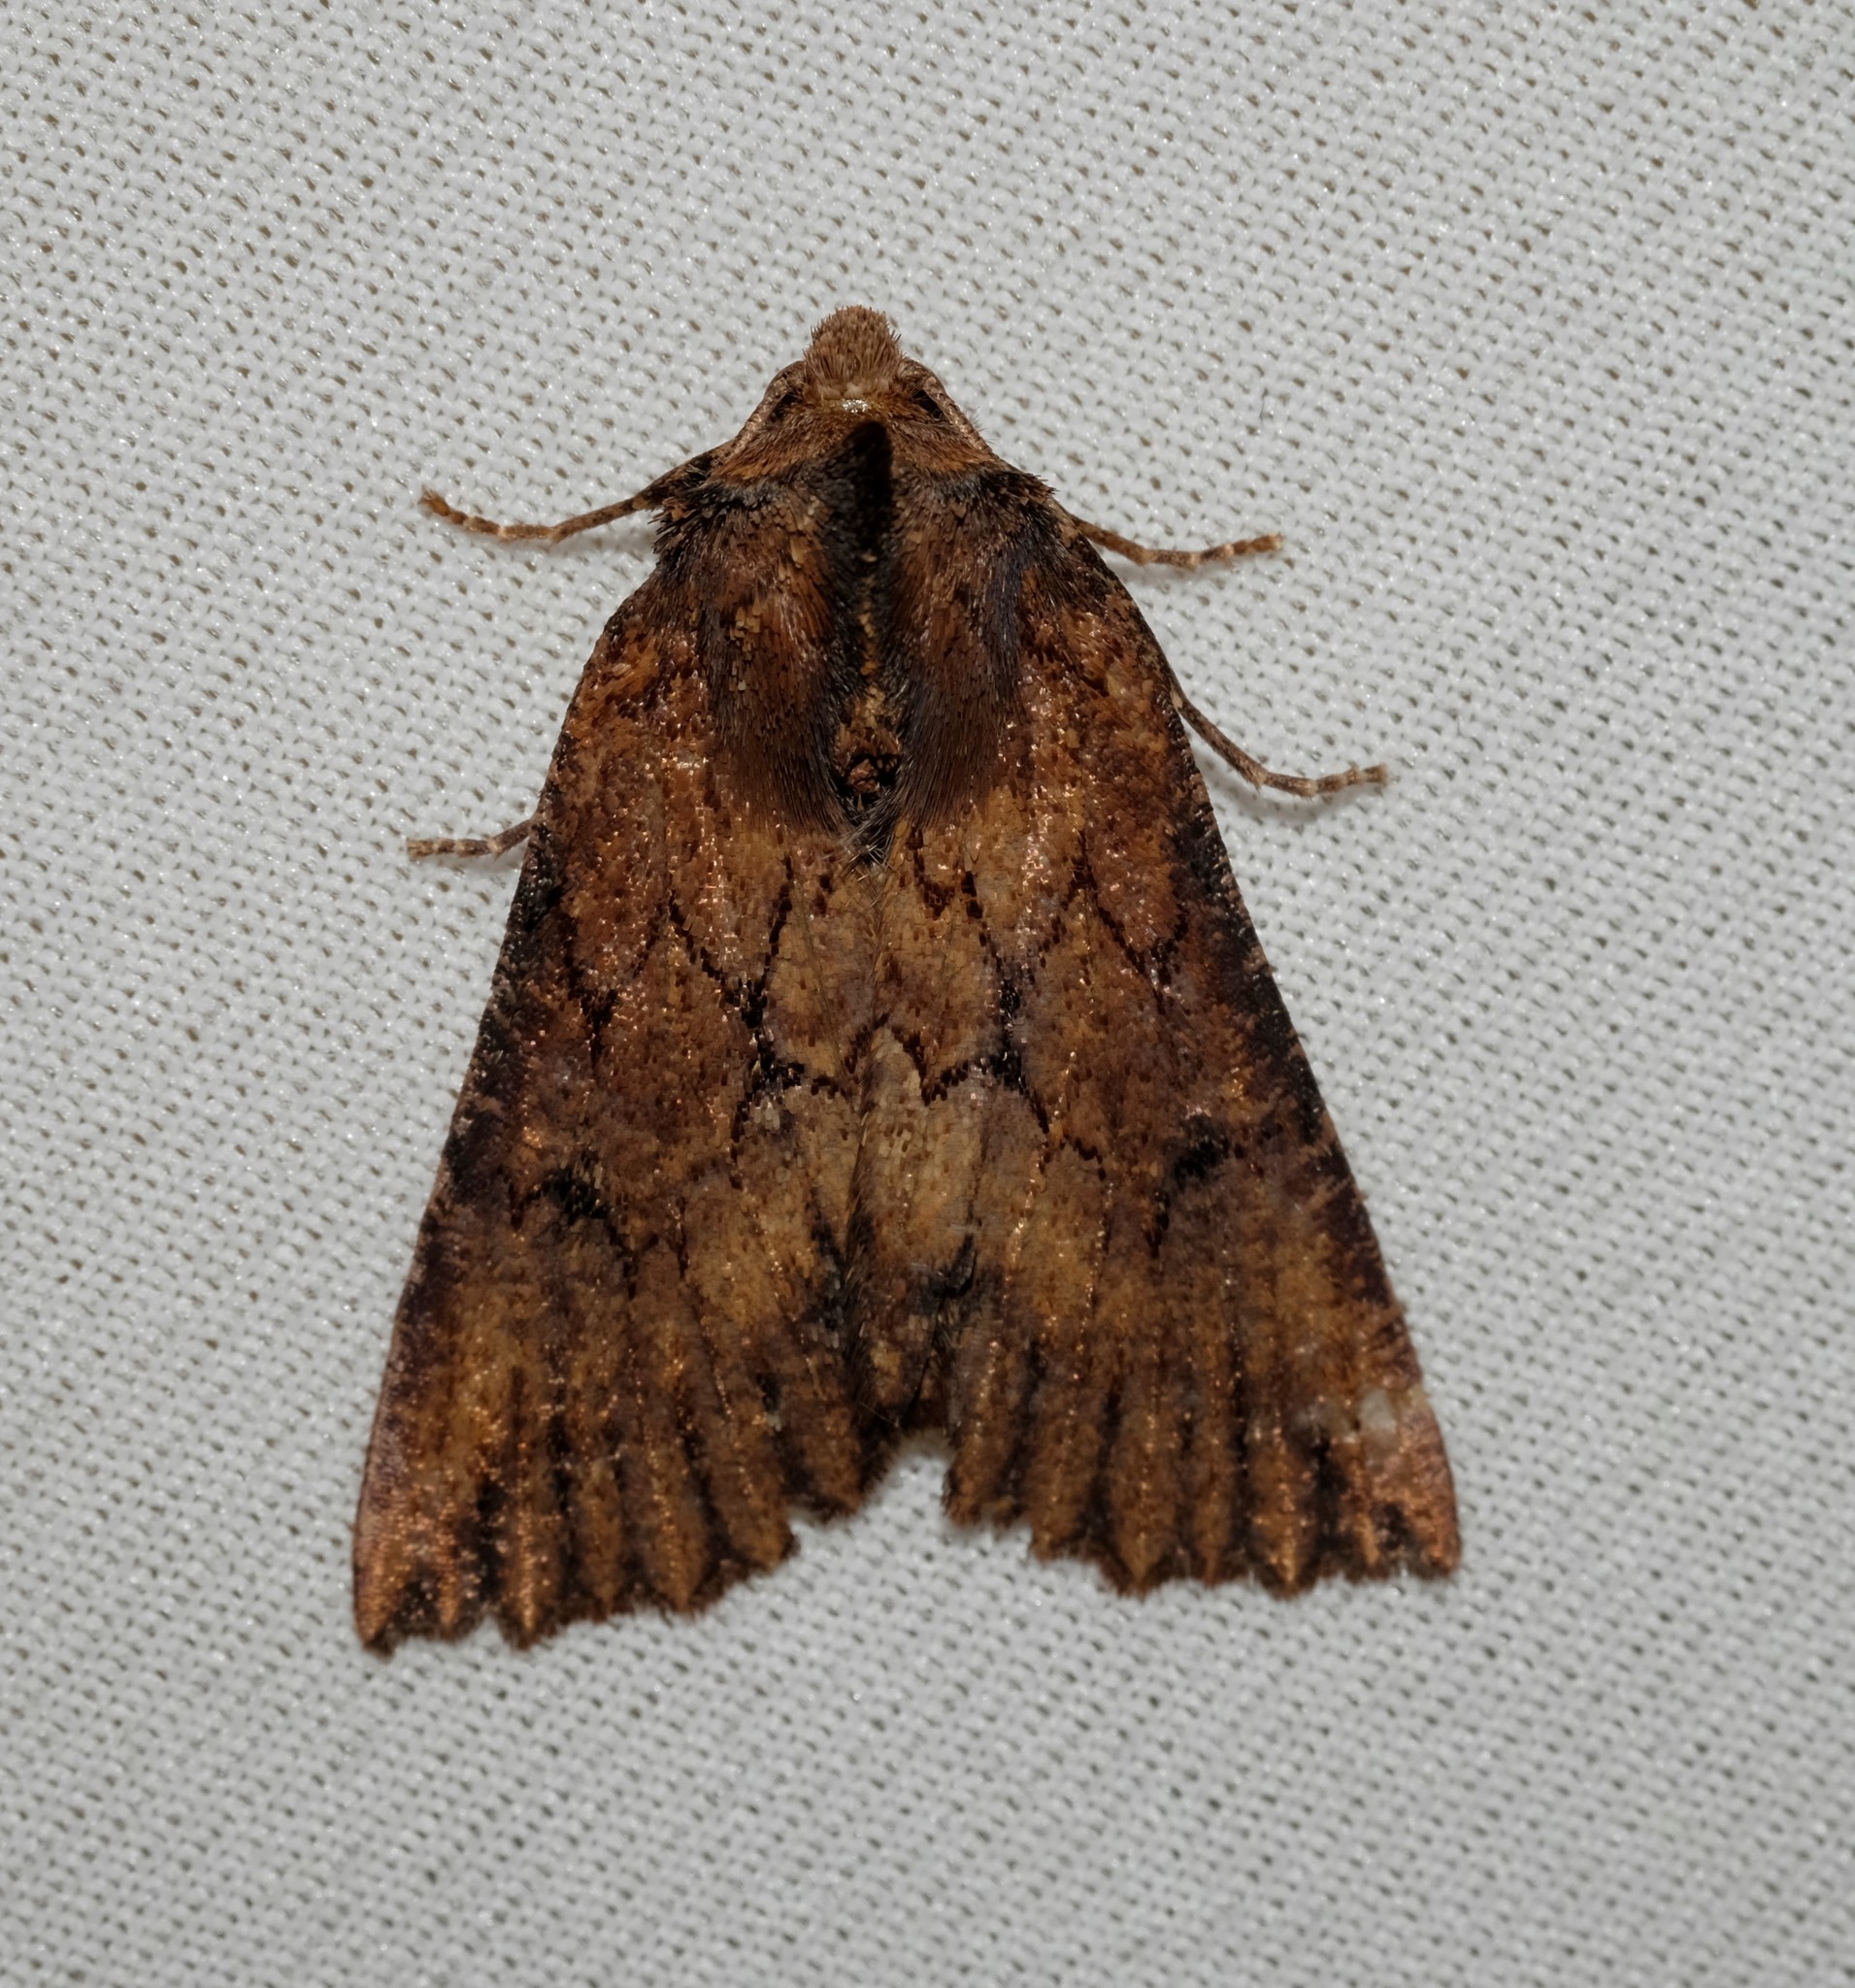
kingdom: Animalia
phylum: Arthropoda
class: Insecta
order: Lepidoptera
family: Geometridae
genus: Nisista
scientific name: Nisista serrata
